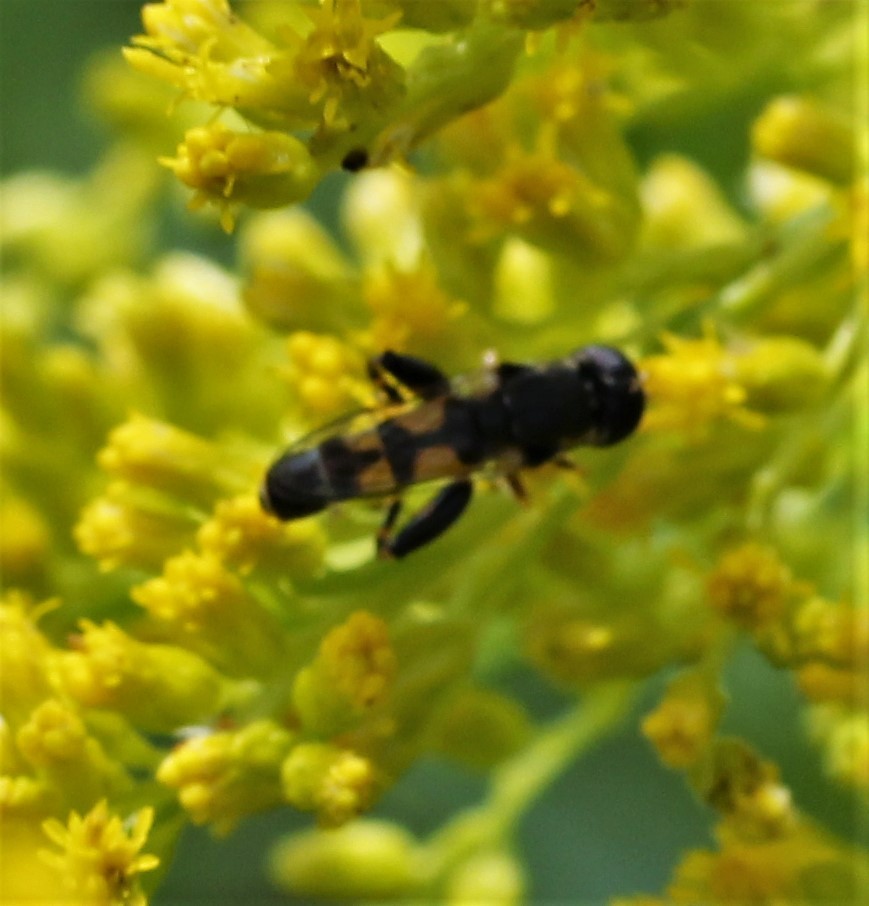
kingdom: Animalia
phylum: Arthropoda
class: Insecta
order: Diptera
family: Syrphidae
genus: Syritta
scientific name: Syritta pipiens
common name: Hover fly
